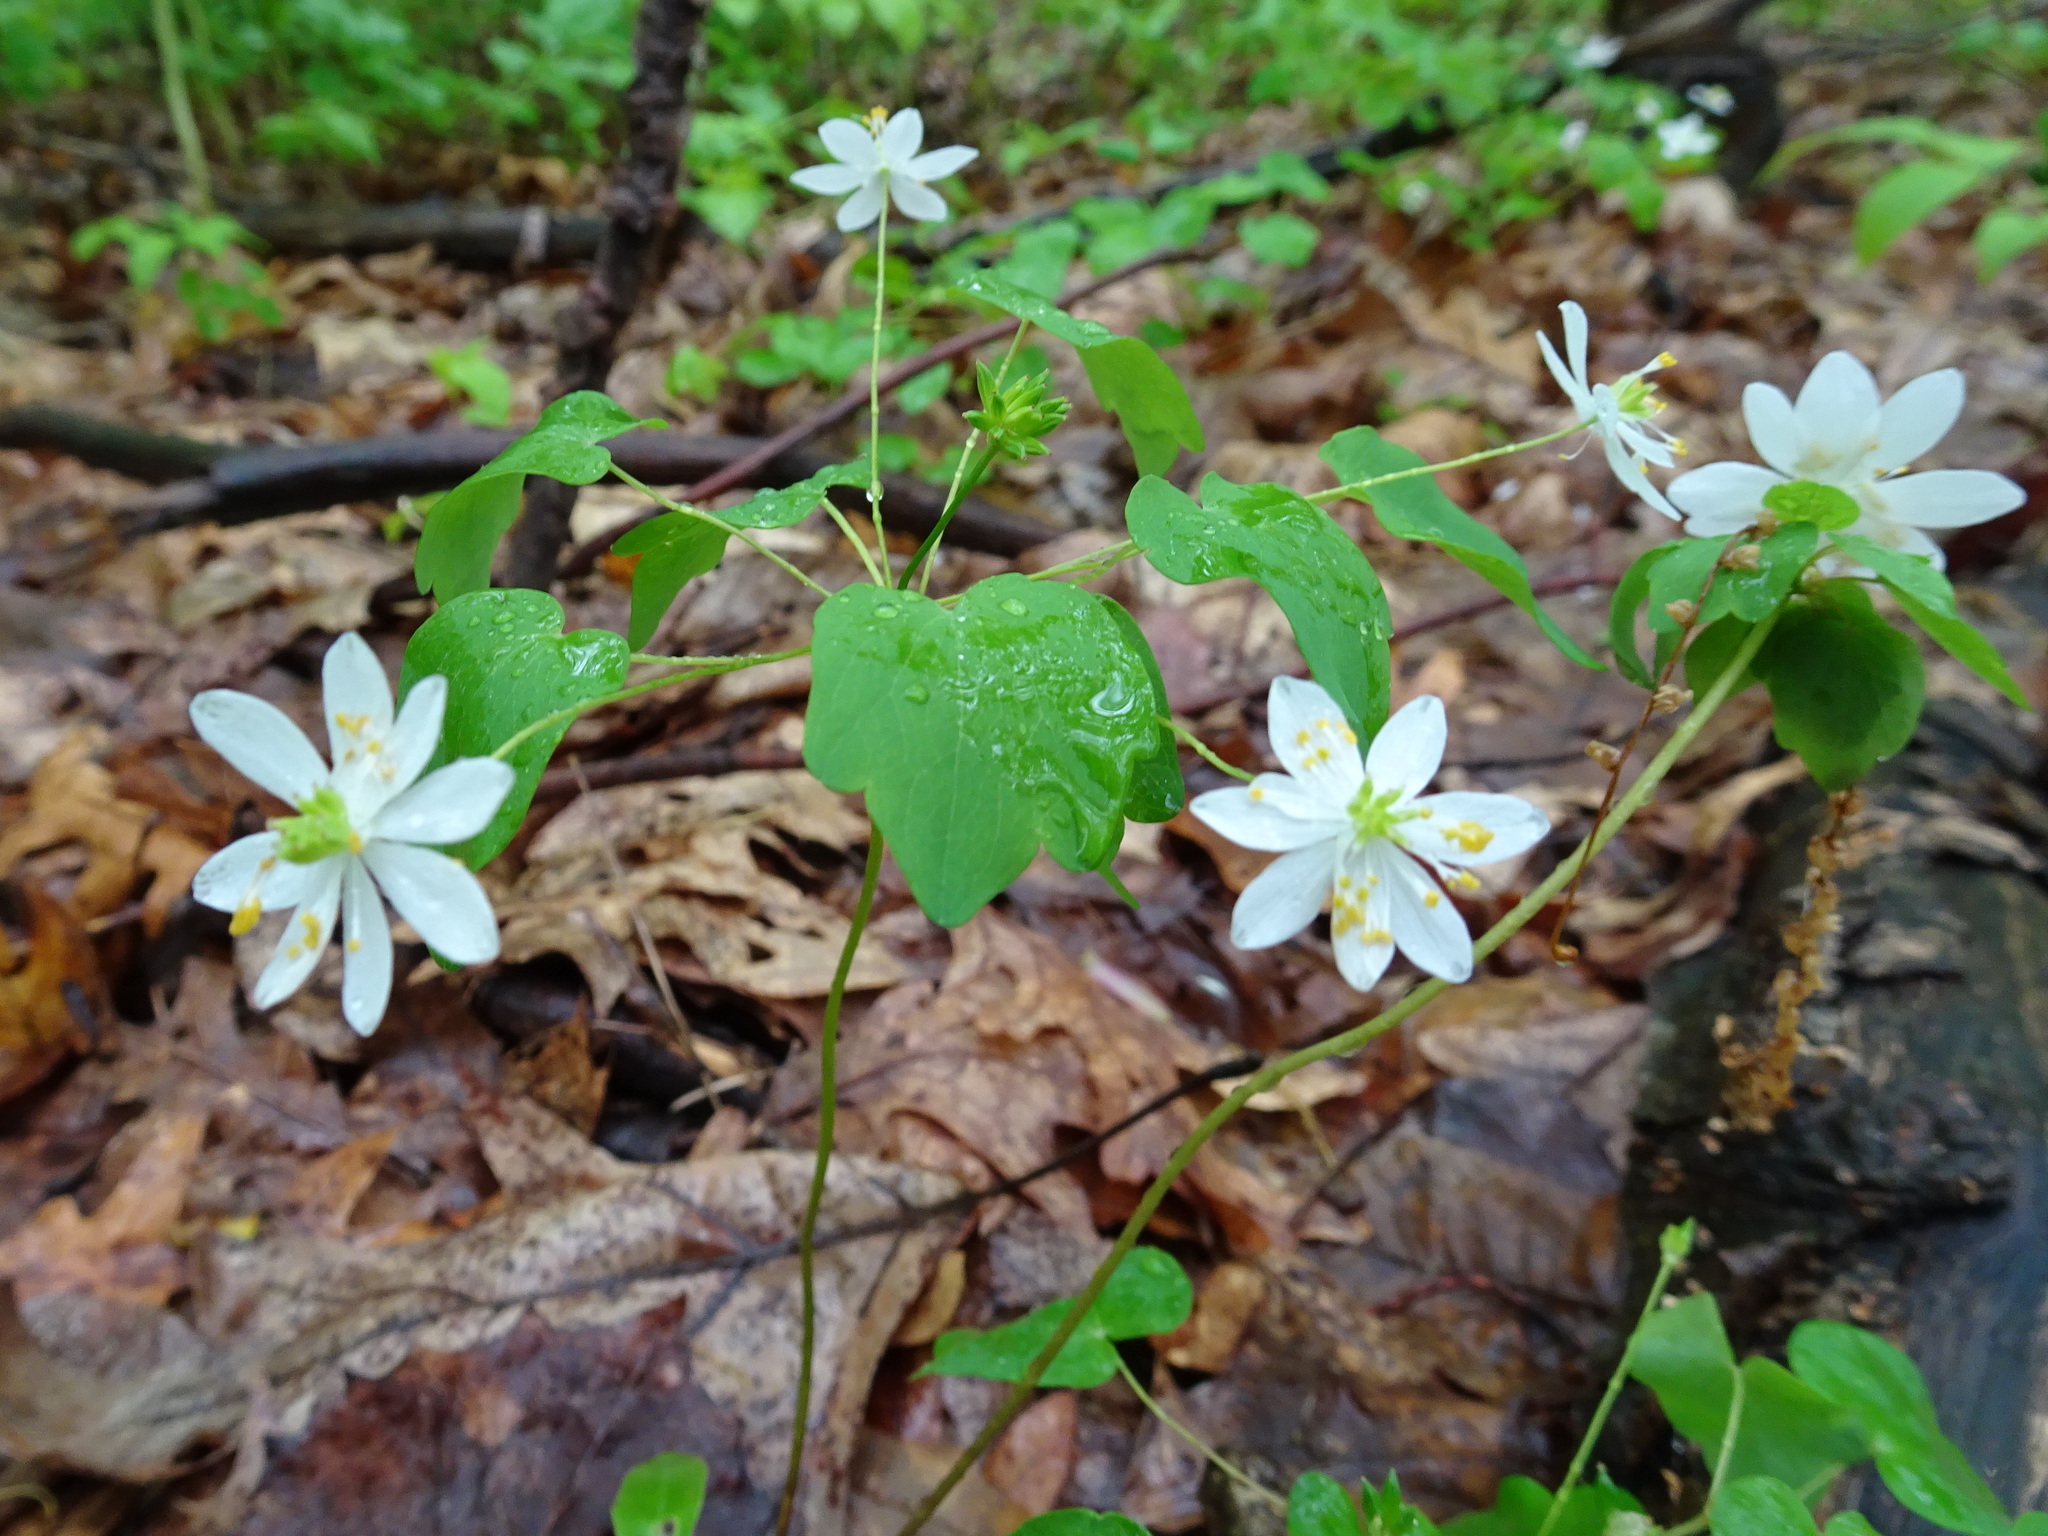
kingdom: Plantae
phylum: Tracheophyta
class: Magnoliopsida
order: Ranunculales
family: Ranunculaceae
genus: Thalictrum
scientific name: Thalictrum thalictroides
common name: Rue-anemone
